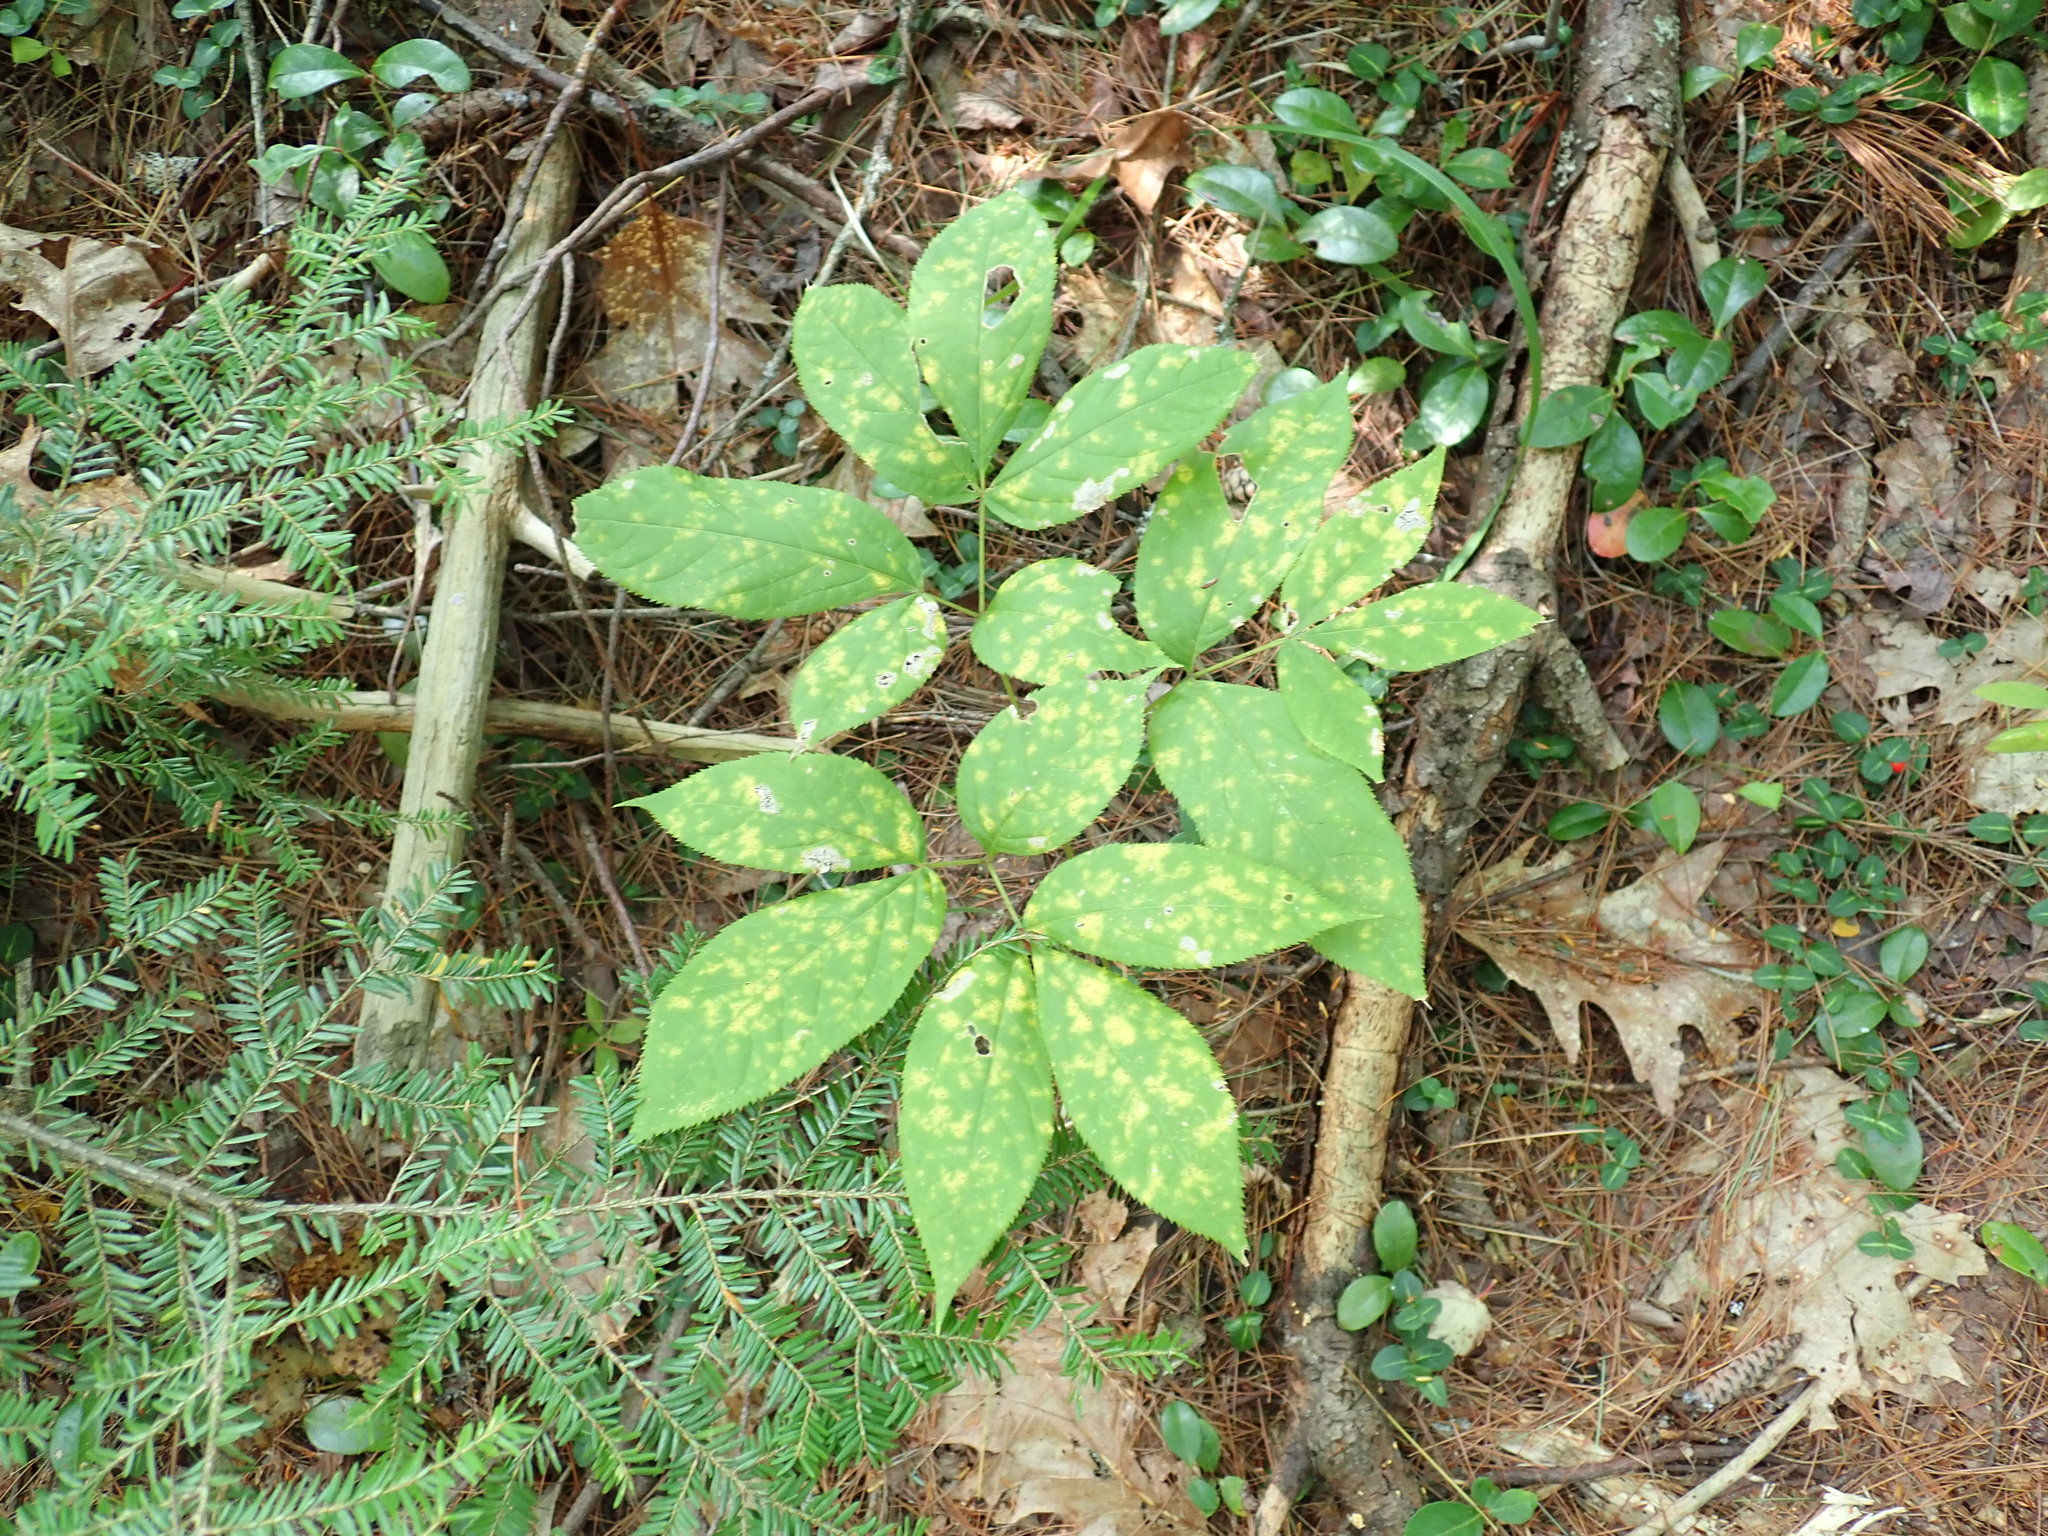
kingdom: Plantae
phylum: Tracheophyta
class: Magnoliopsida
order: Apiales
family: Araliaceae
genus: Aralia
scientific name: Aralia nudicaulis
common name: Wild sarsaparilla
